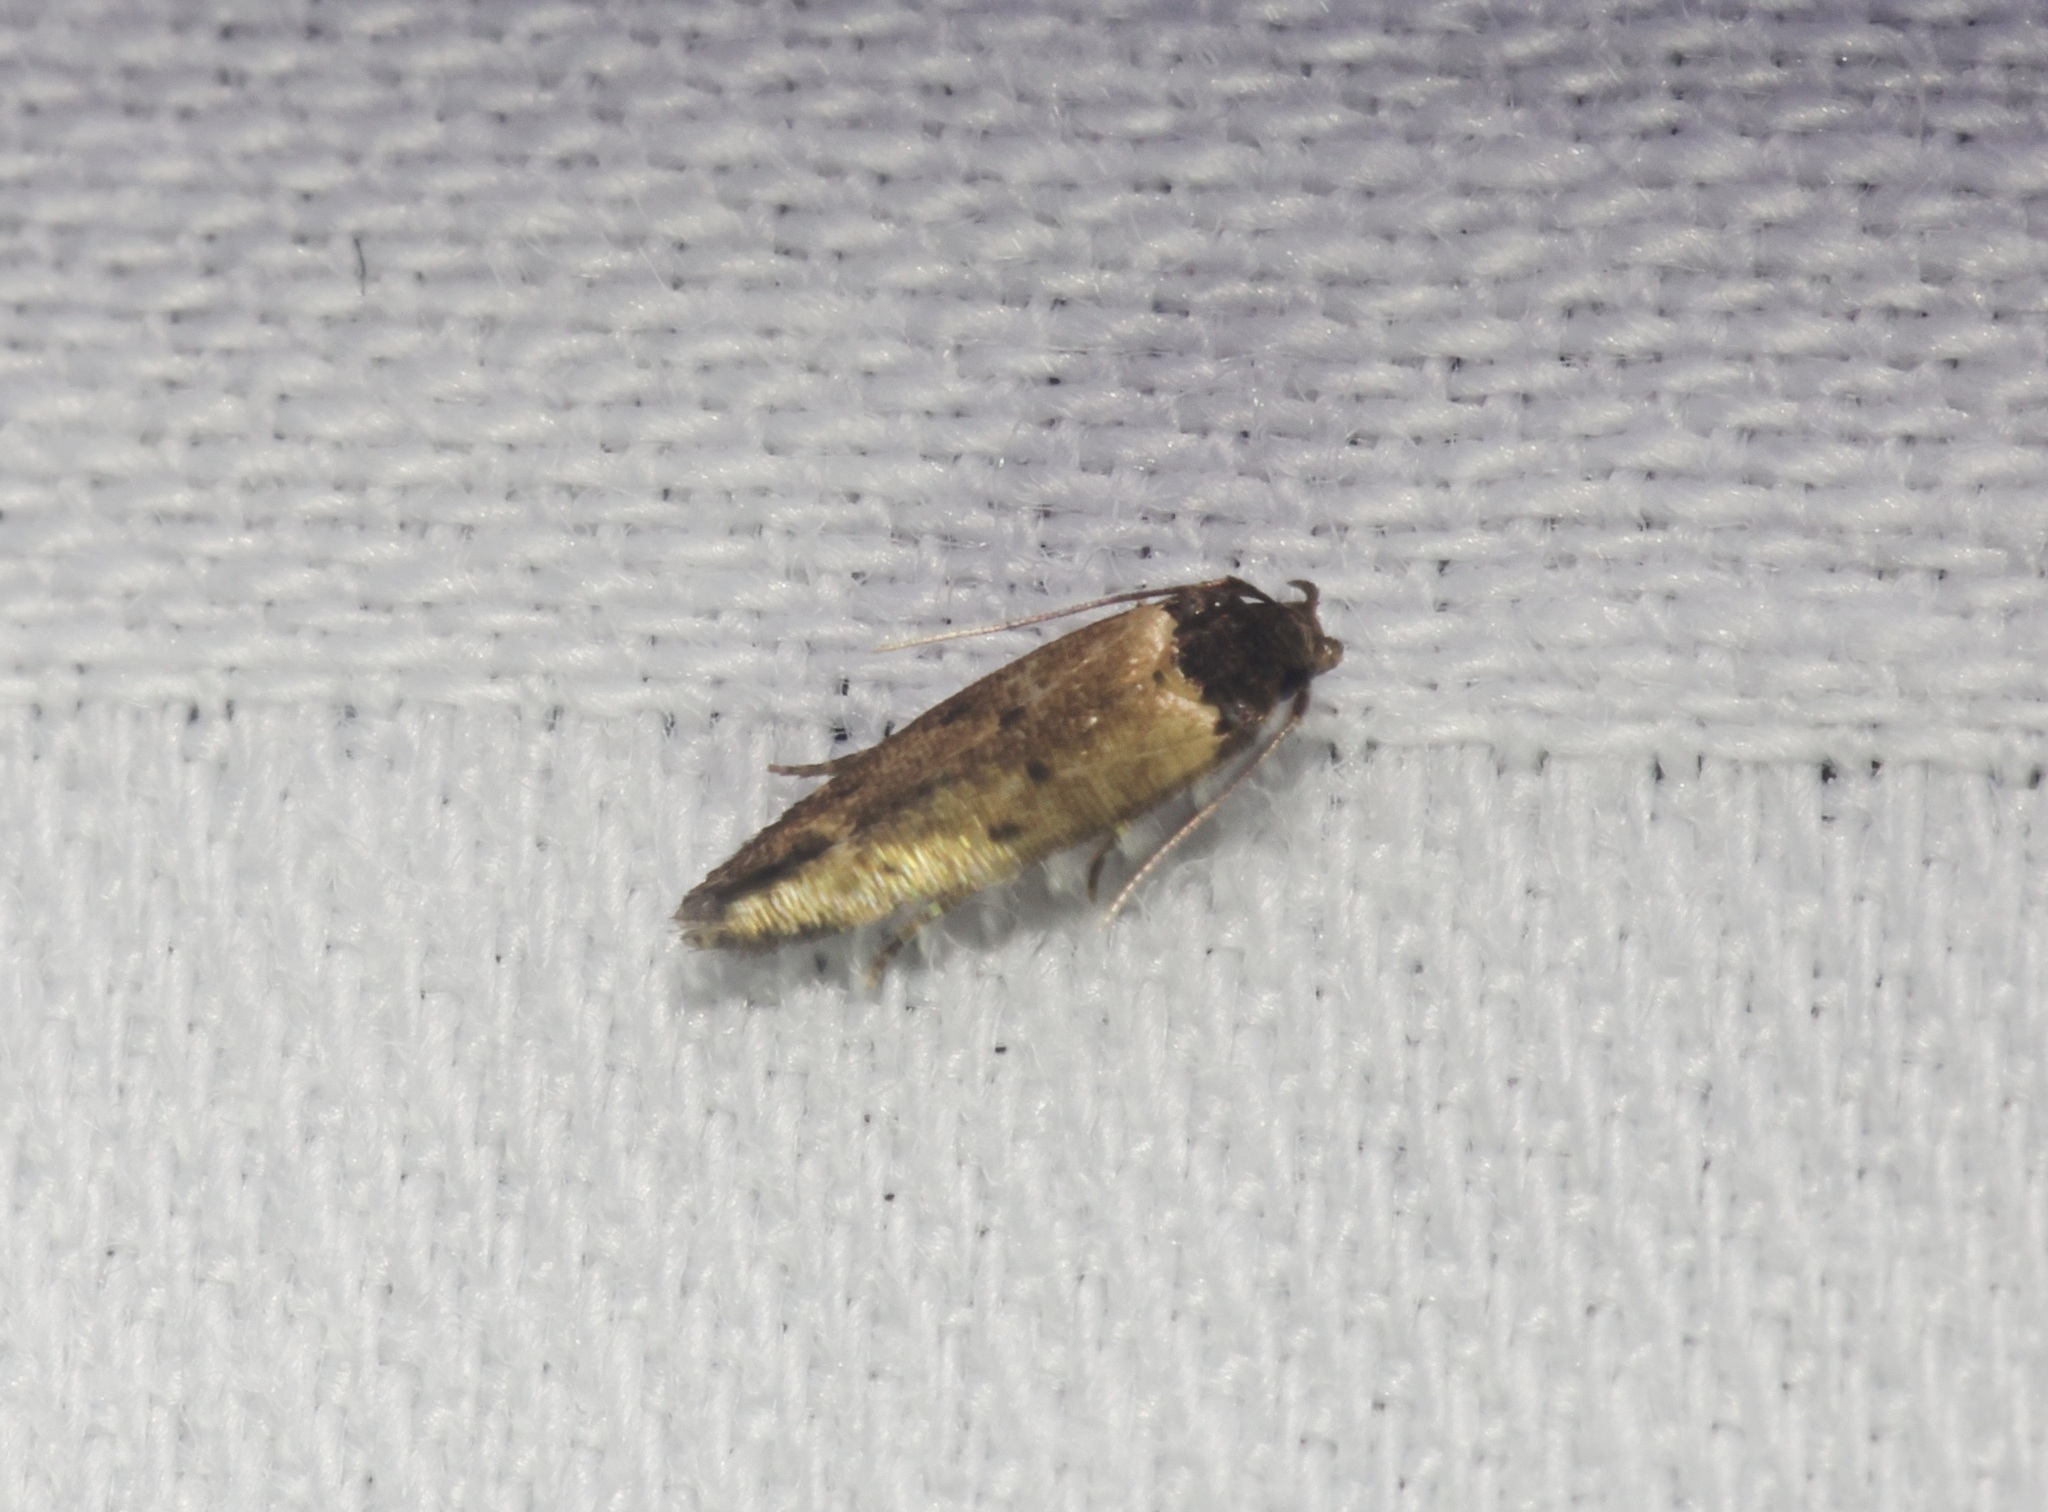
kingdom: Animalia
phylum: Arthropoda
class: Insecta
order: Lepidoptera
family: Cosmopterigidae
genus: Gisilia
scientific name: Gisilia thoracista
